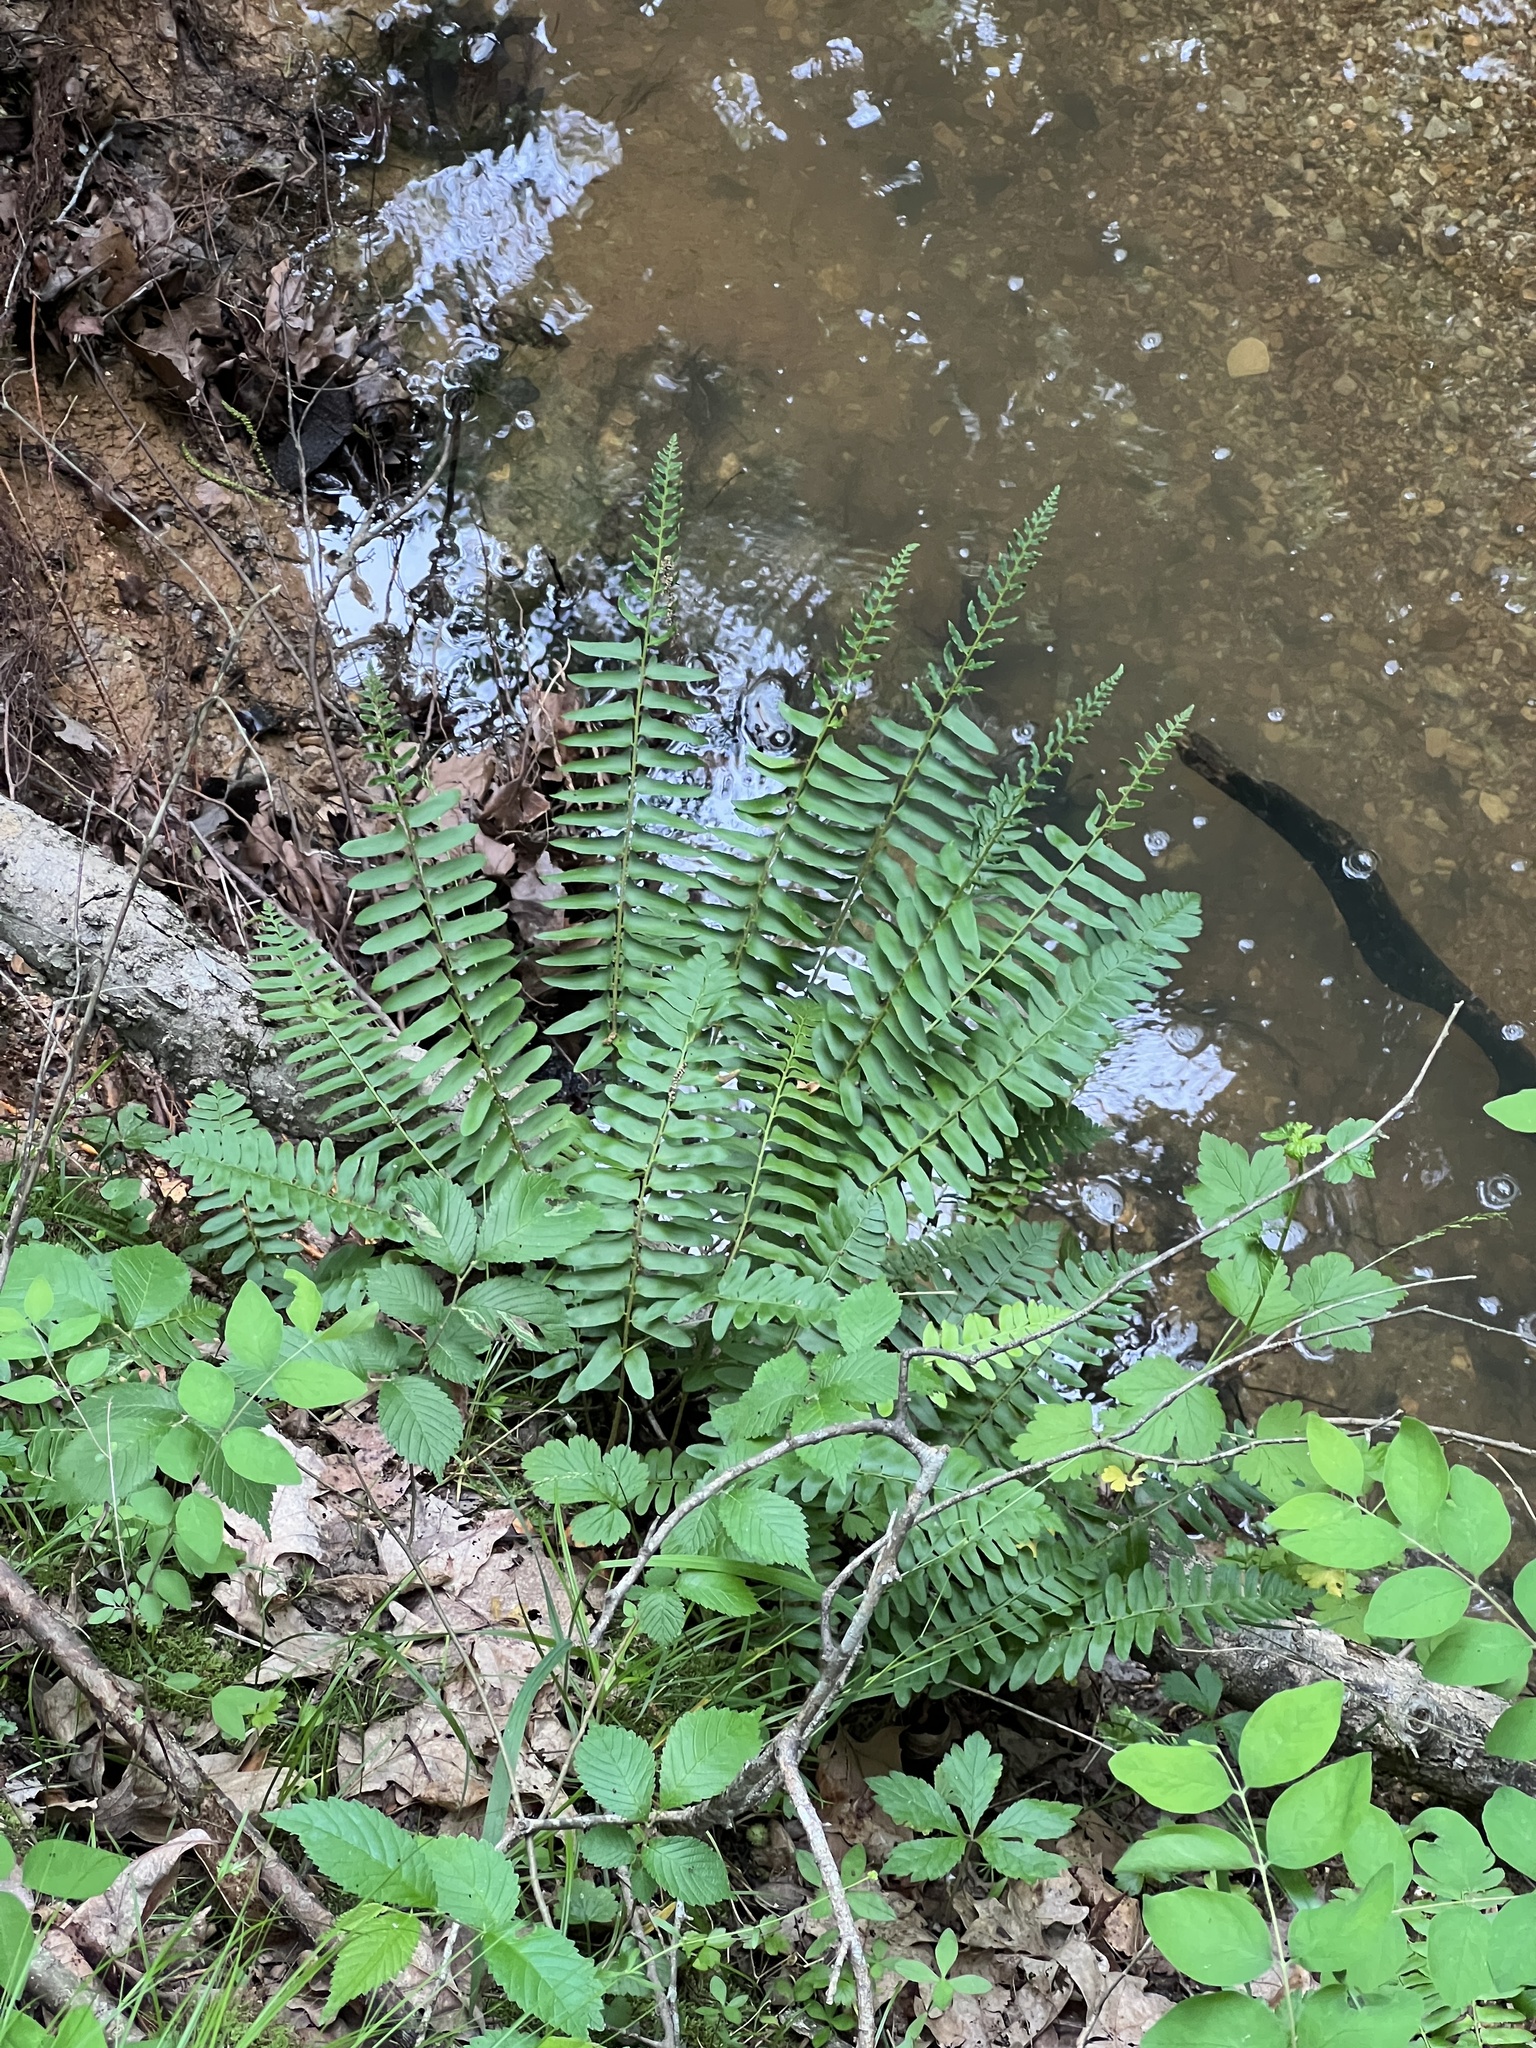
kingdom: Plantae
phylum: Tracheophyta
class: Polypodiopsida
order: Polypodiales
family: Dryopteridaceae
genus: Polystichum
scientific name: Polystichum acrostichoides
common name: Christmas fern
